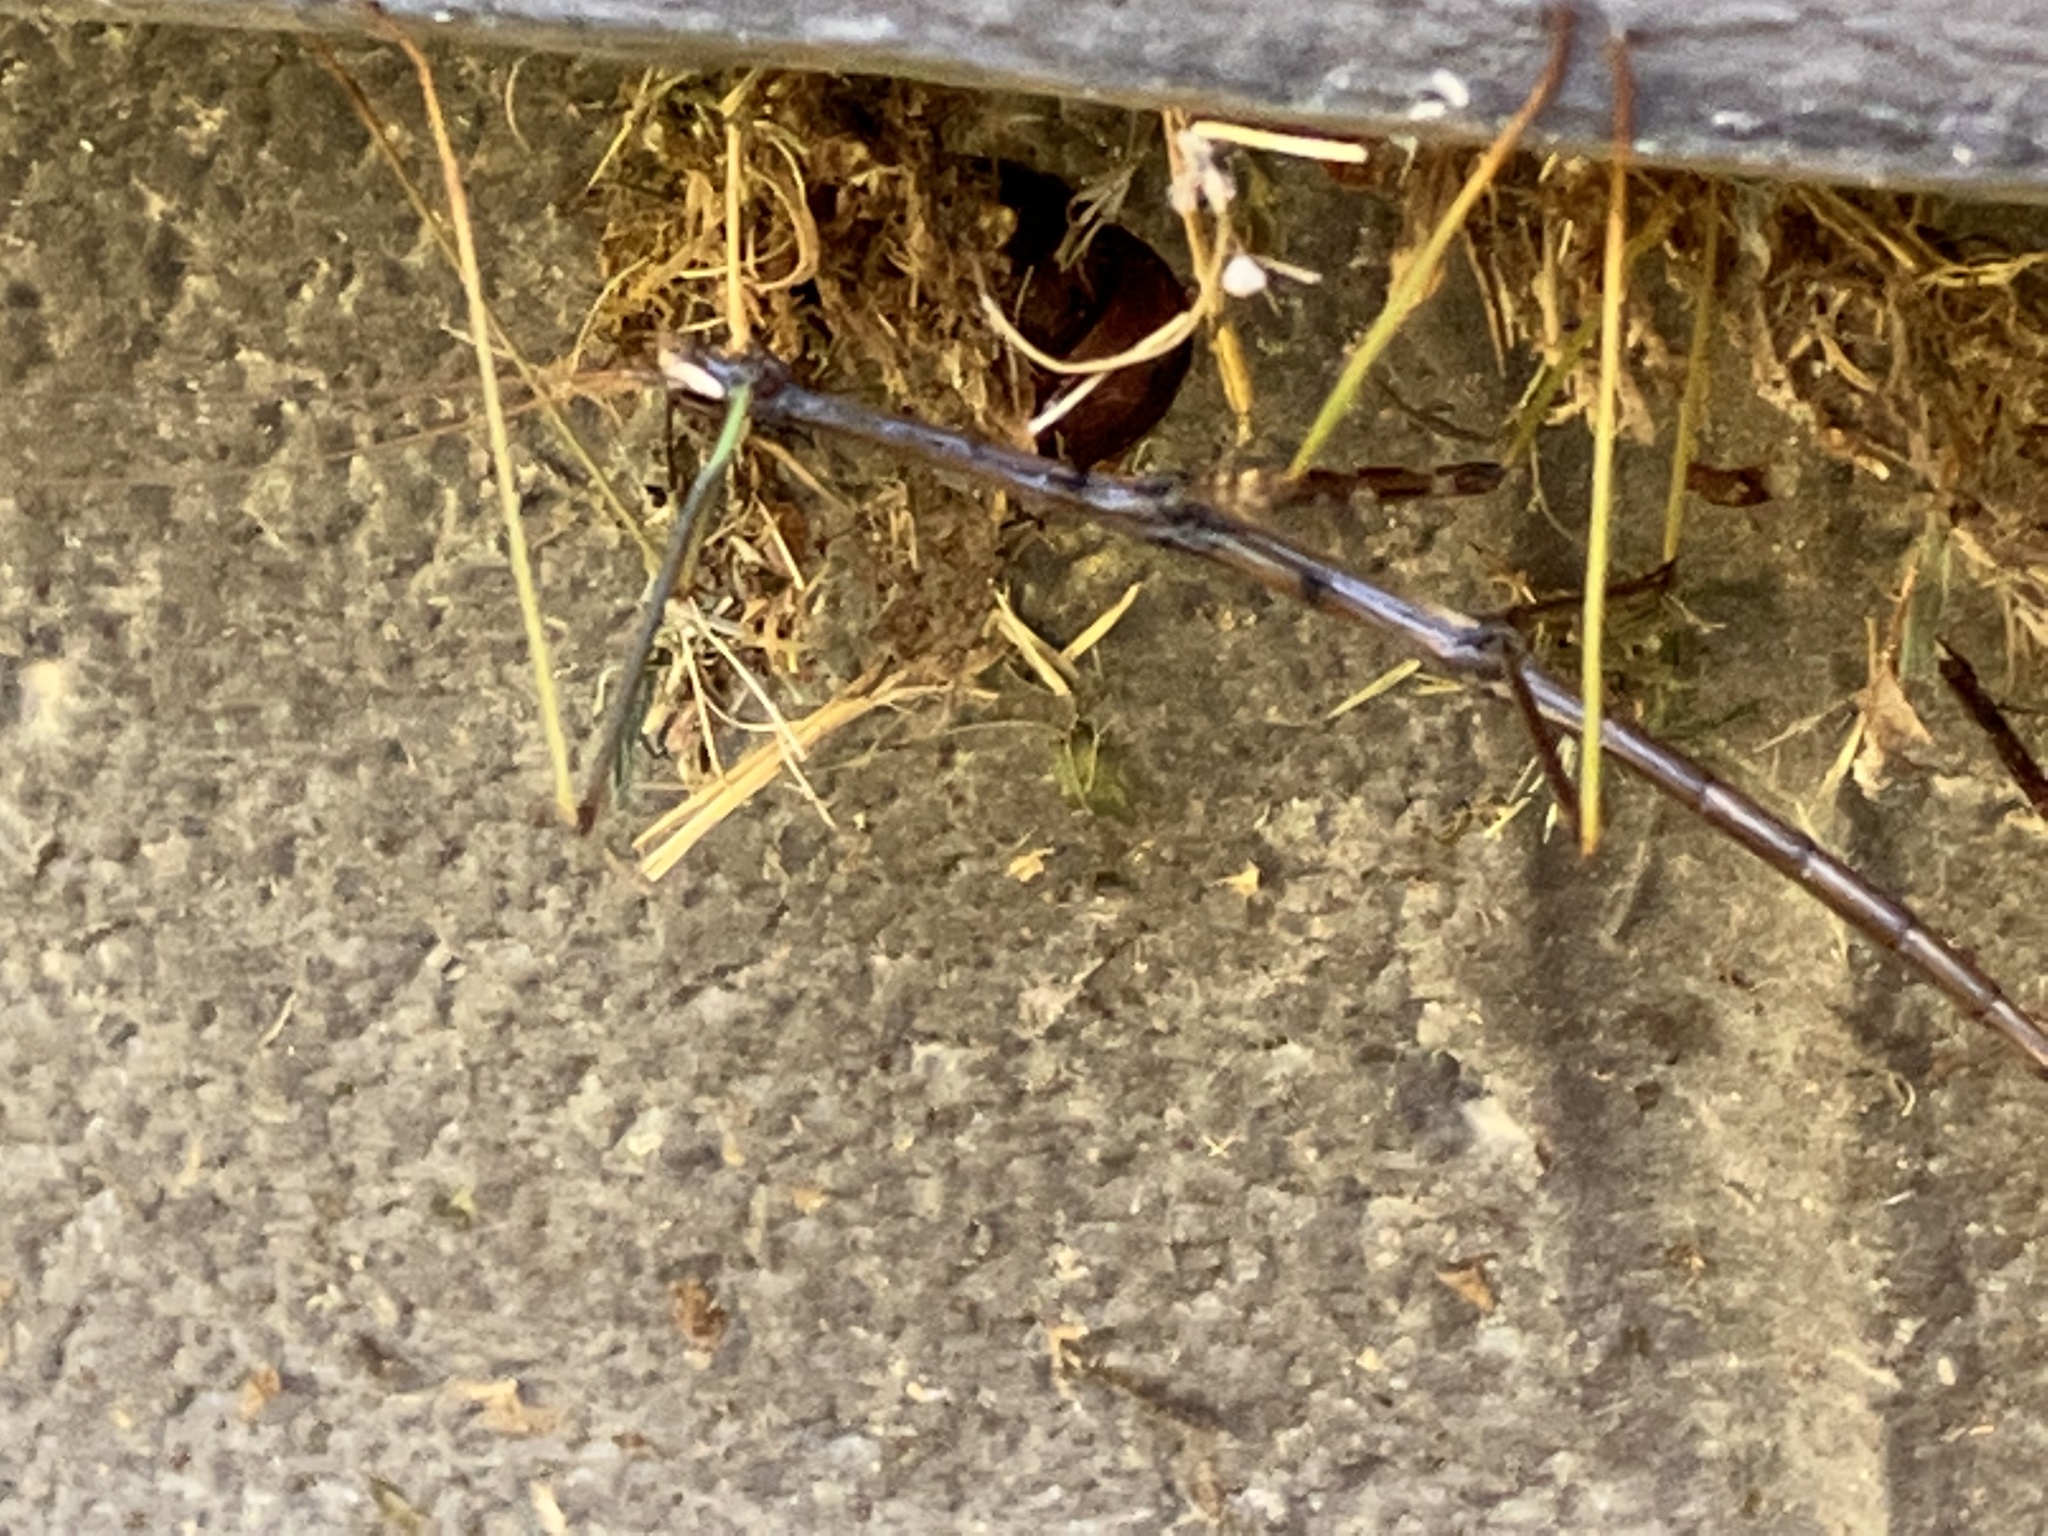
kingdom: Animalia
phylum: Arthropoda
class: Insecta
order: Phasmida
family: Diapheromeridae
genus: Diapheromera
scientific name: Diapheromera femorata
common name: Common american walkingstick
